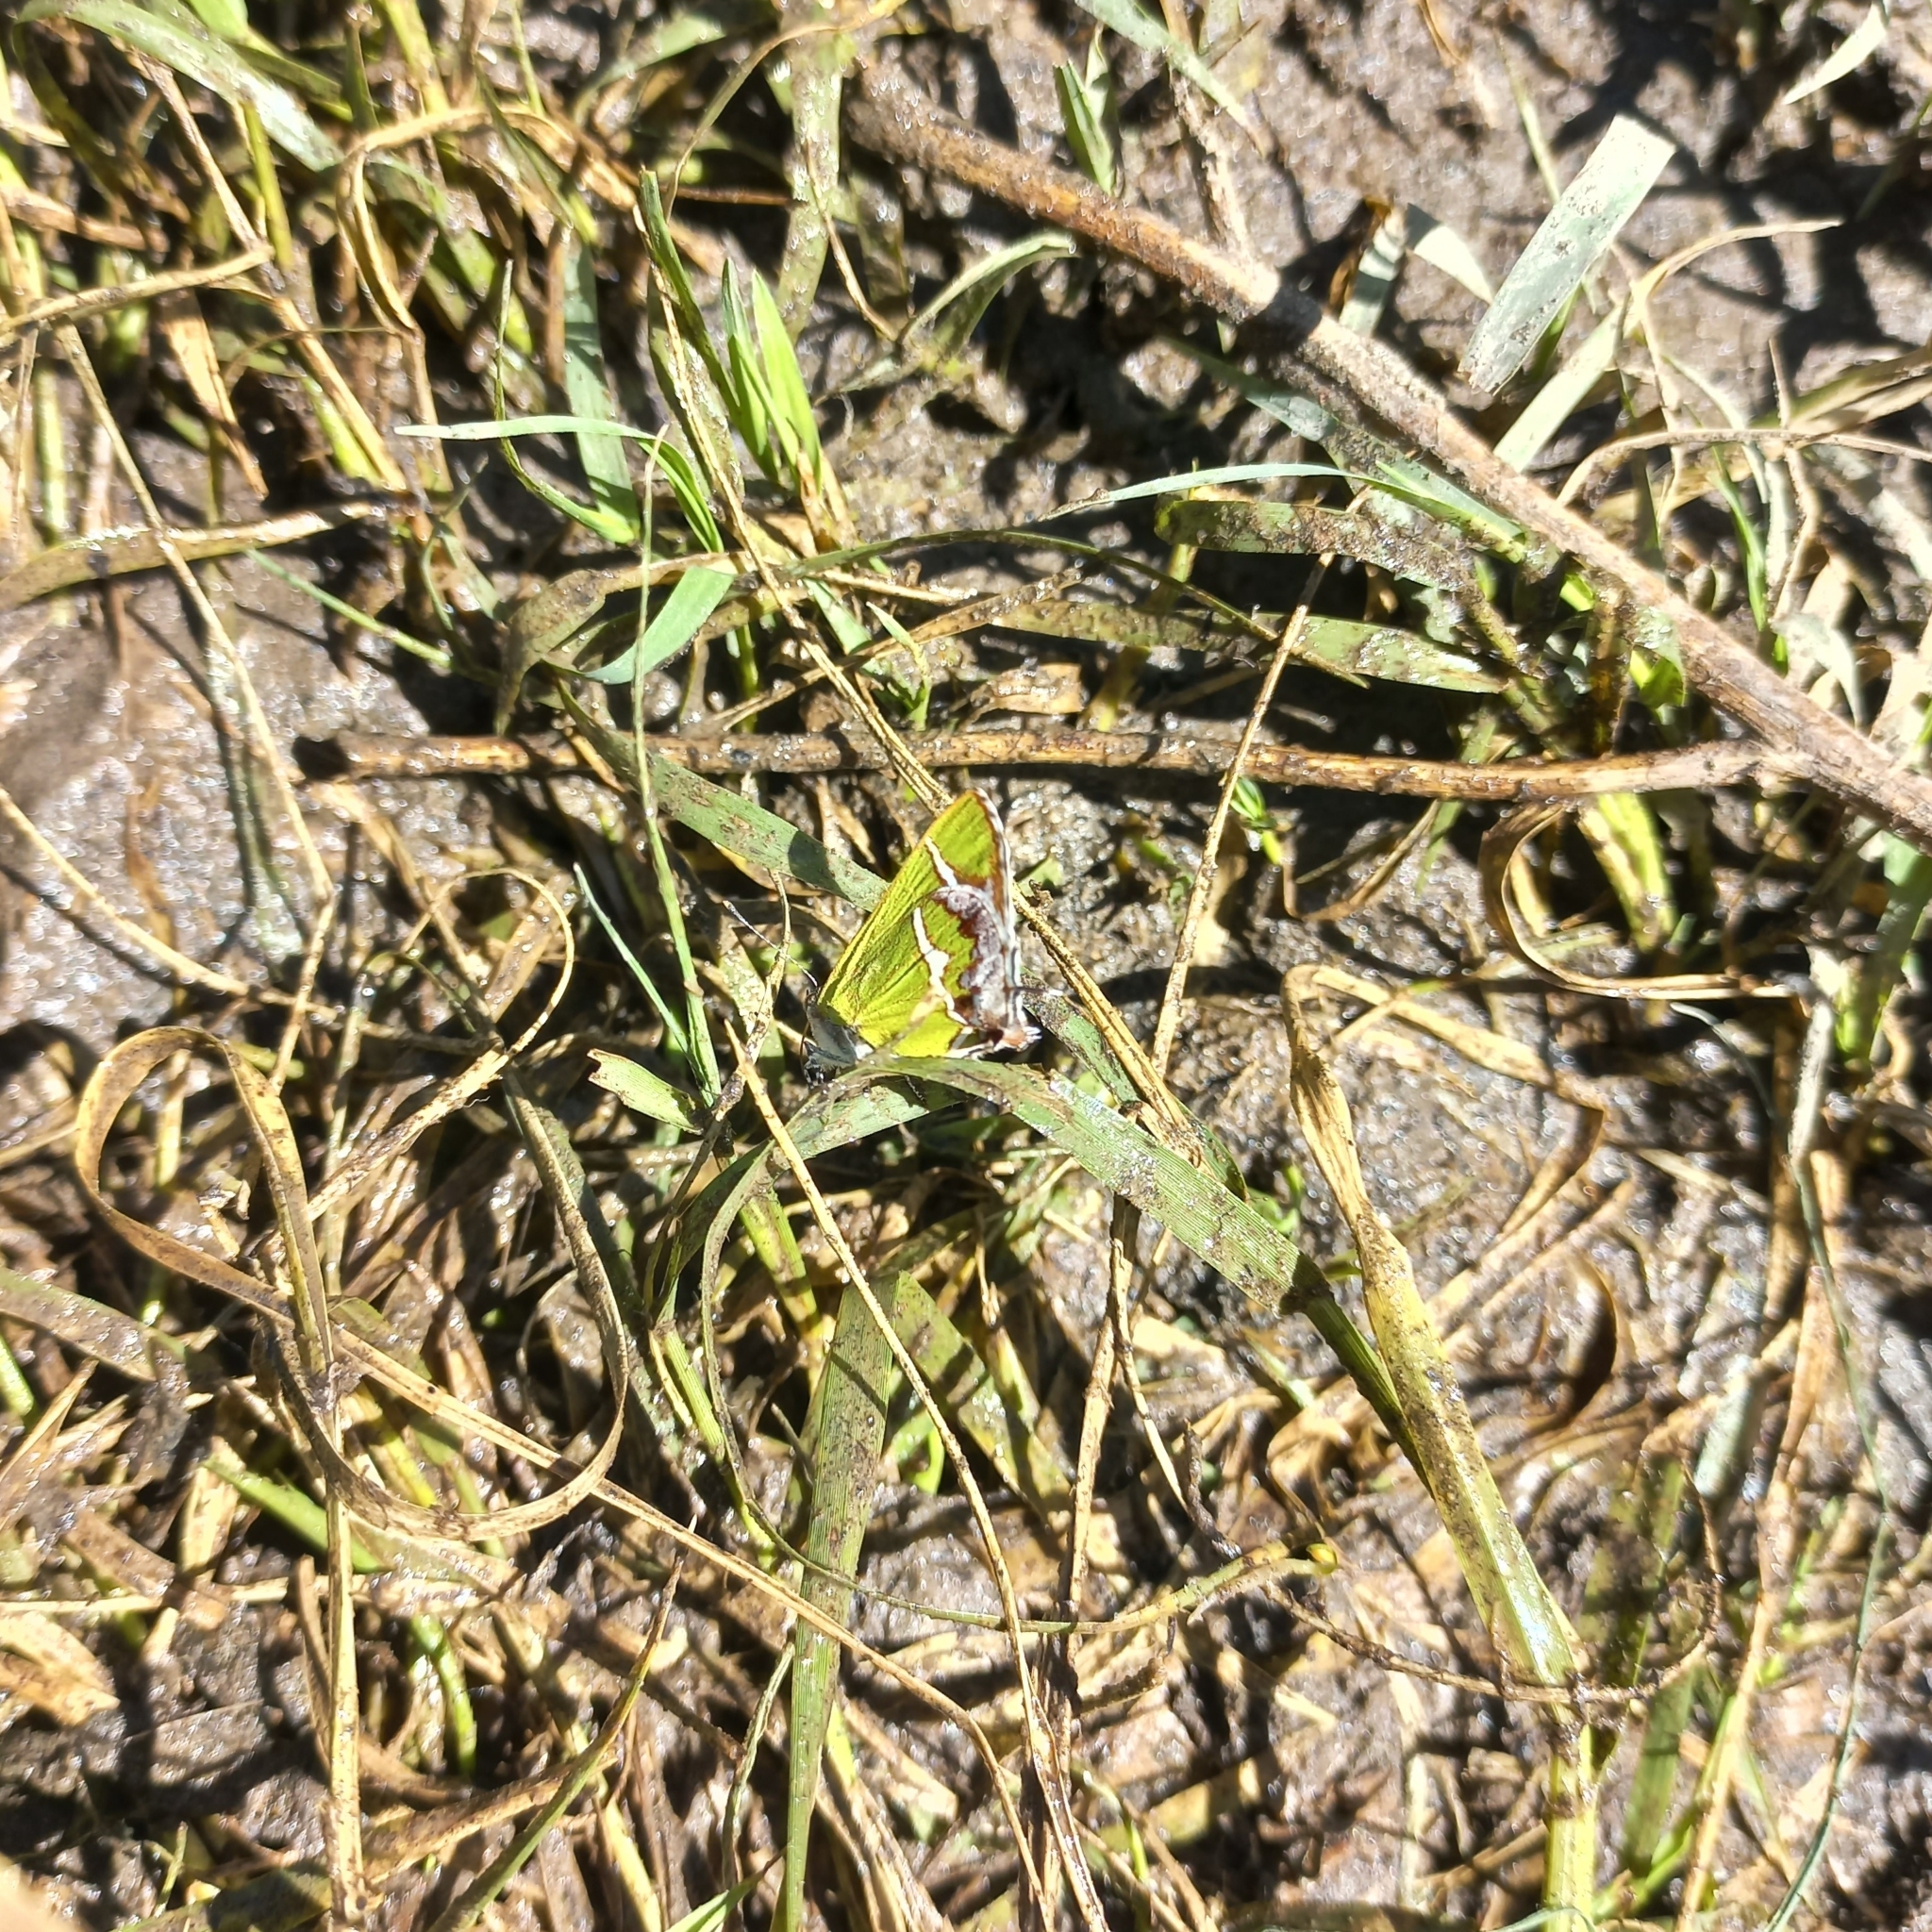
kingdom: Animalia
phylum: Arthropoda
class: Insecta
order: Lepidoptera
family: Lycaenidae
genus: Chlorostrymon
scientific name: Chlorostrymon simaethis
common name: Silver-banded hairstreak
